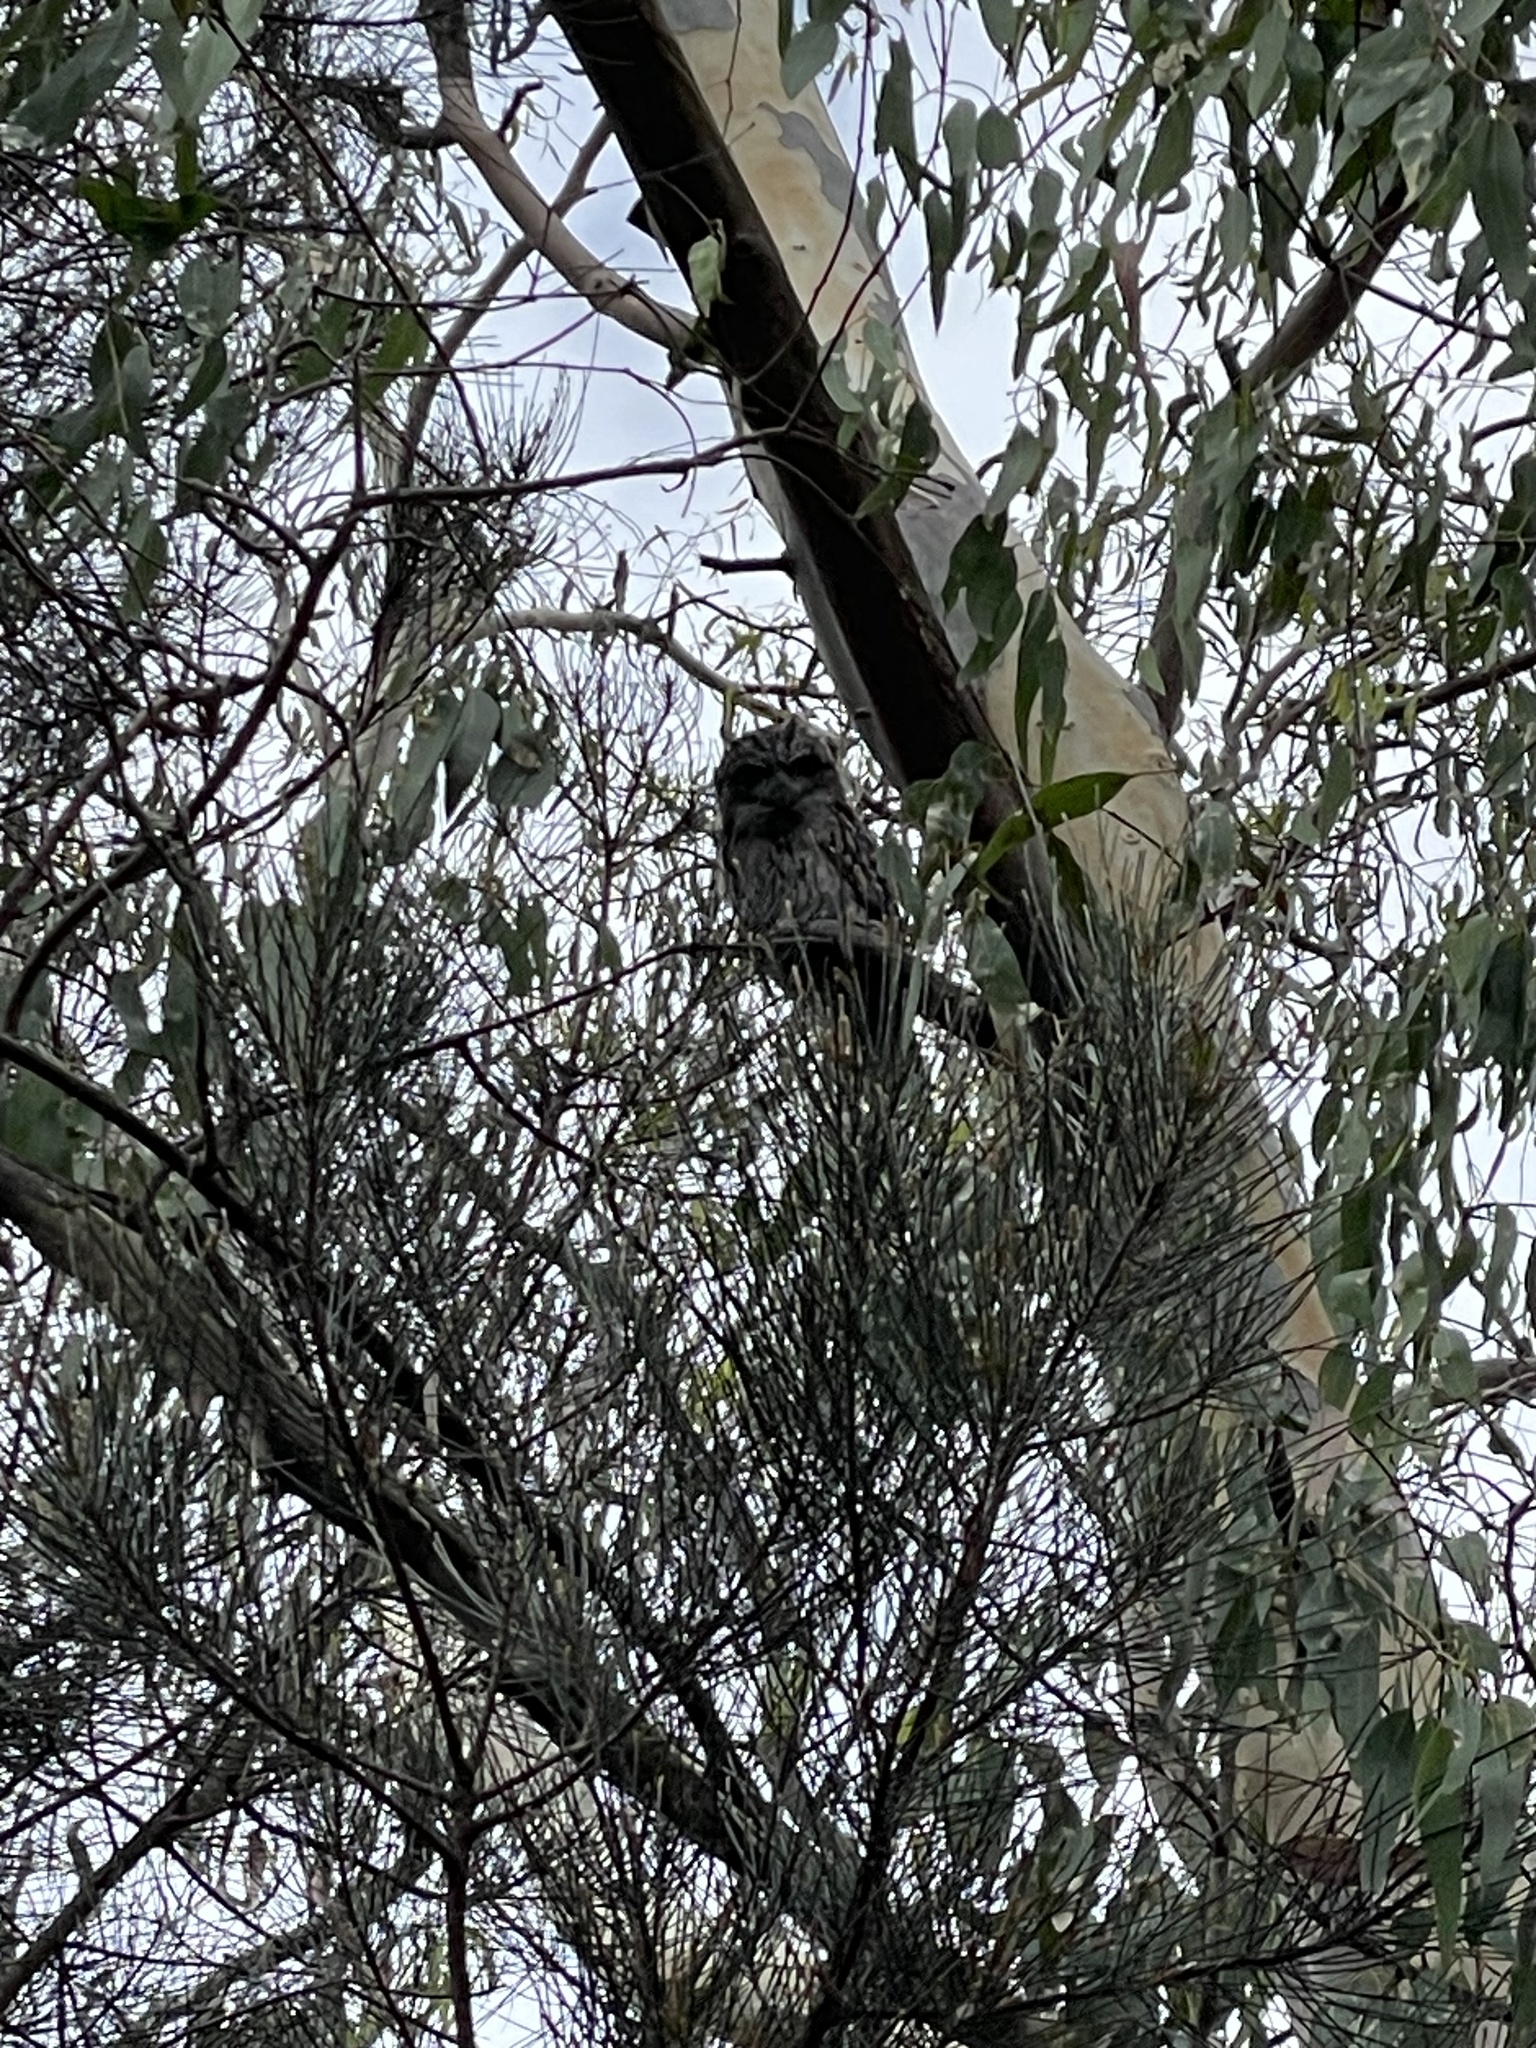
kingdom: Animalia
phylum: Chordata
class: Aves
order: Caprimulgiformes
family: Podargidae
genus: Podargus
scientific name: Podargus strigoides
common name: Tawny frogmouth
